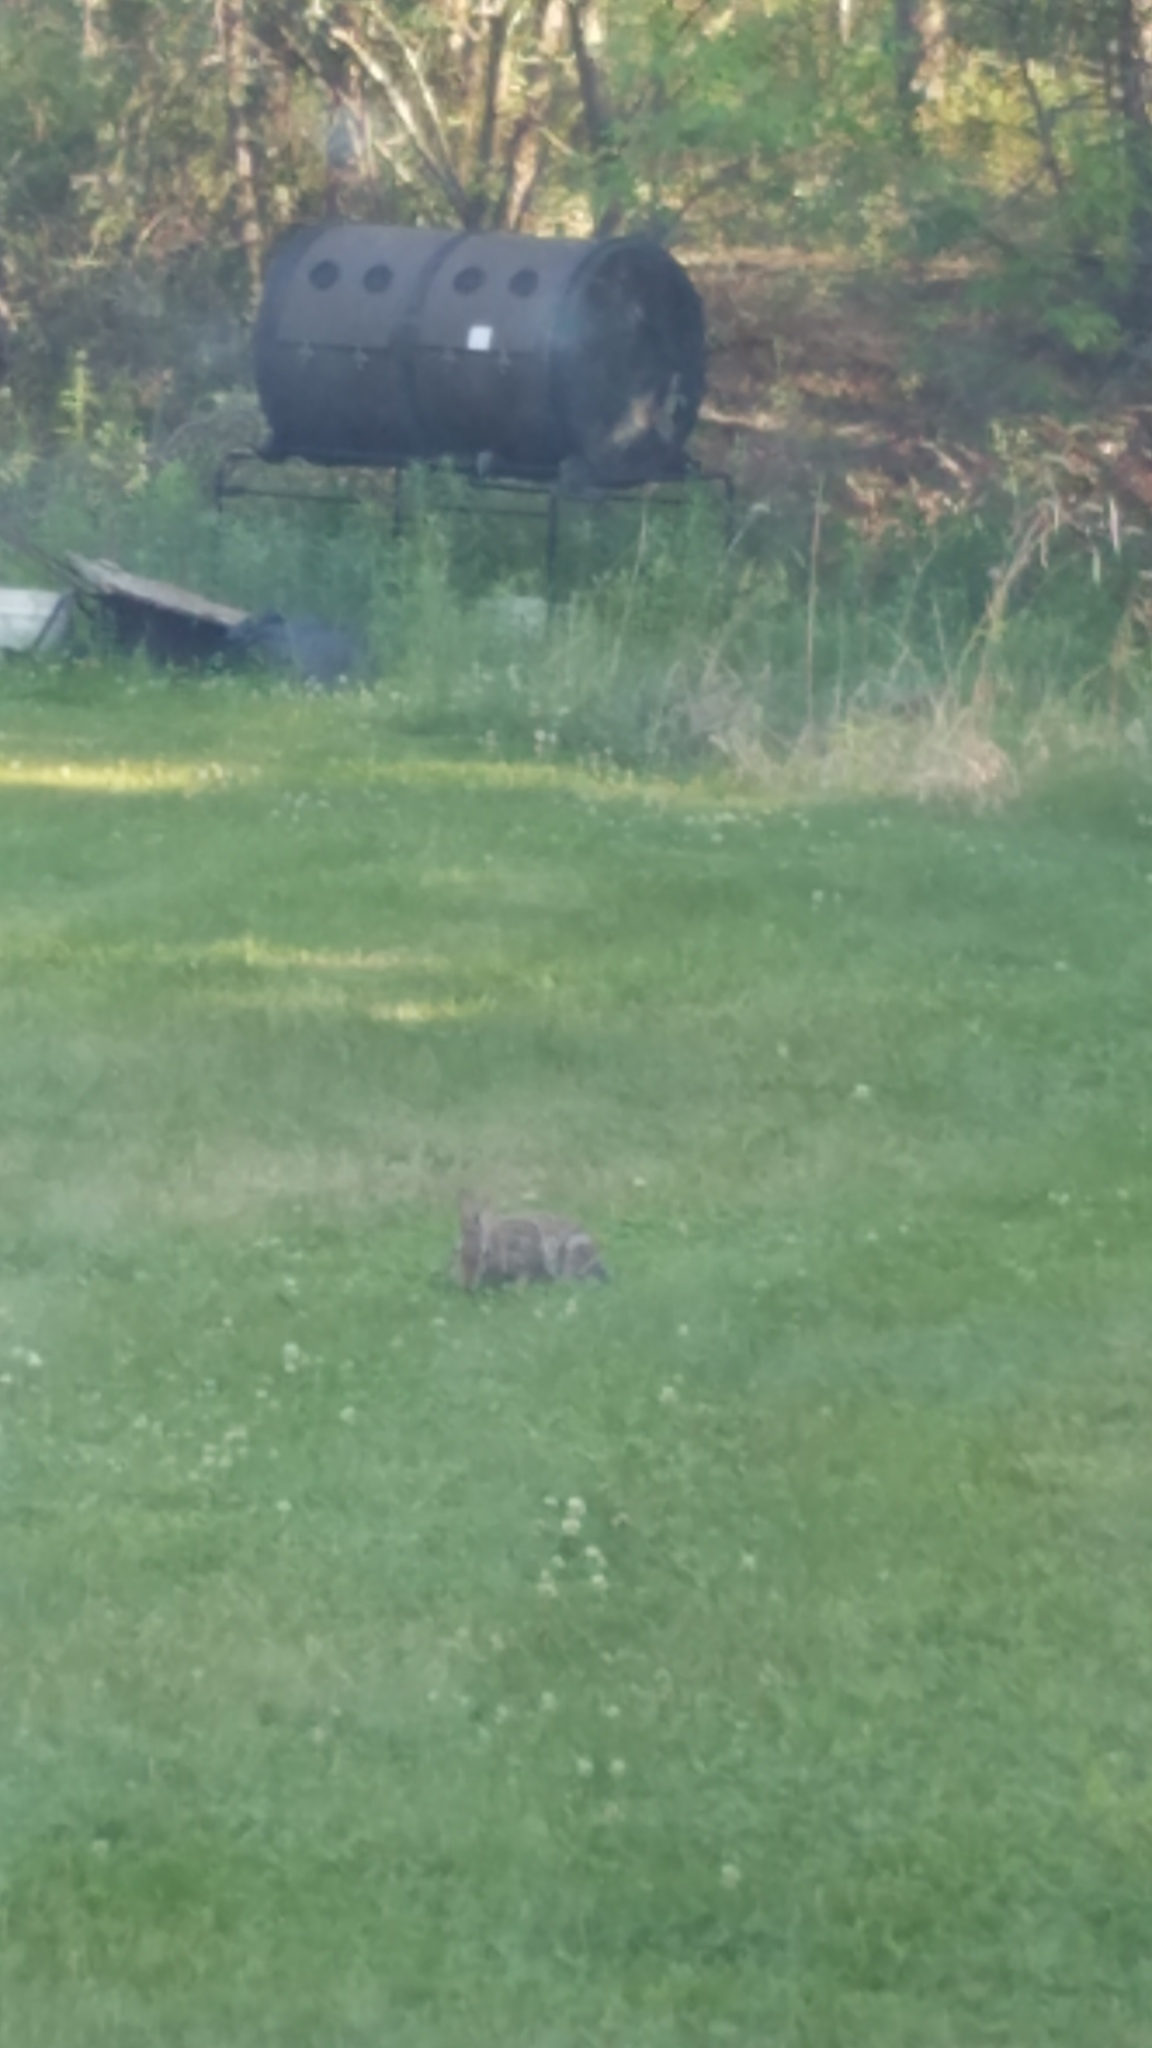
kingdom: Animalia
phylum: Chordata
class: Mammalia
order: Lagomorpha
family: Leporidae
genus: Sylvilagus
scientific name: Sylvilagus floridanus
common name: Eastern cottontail
